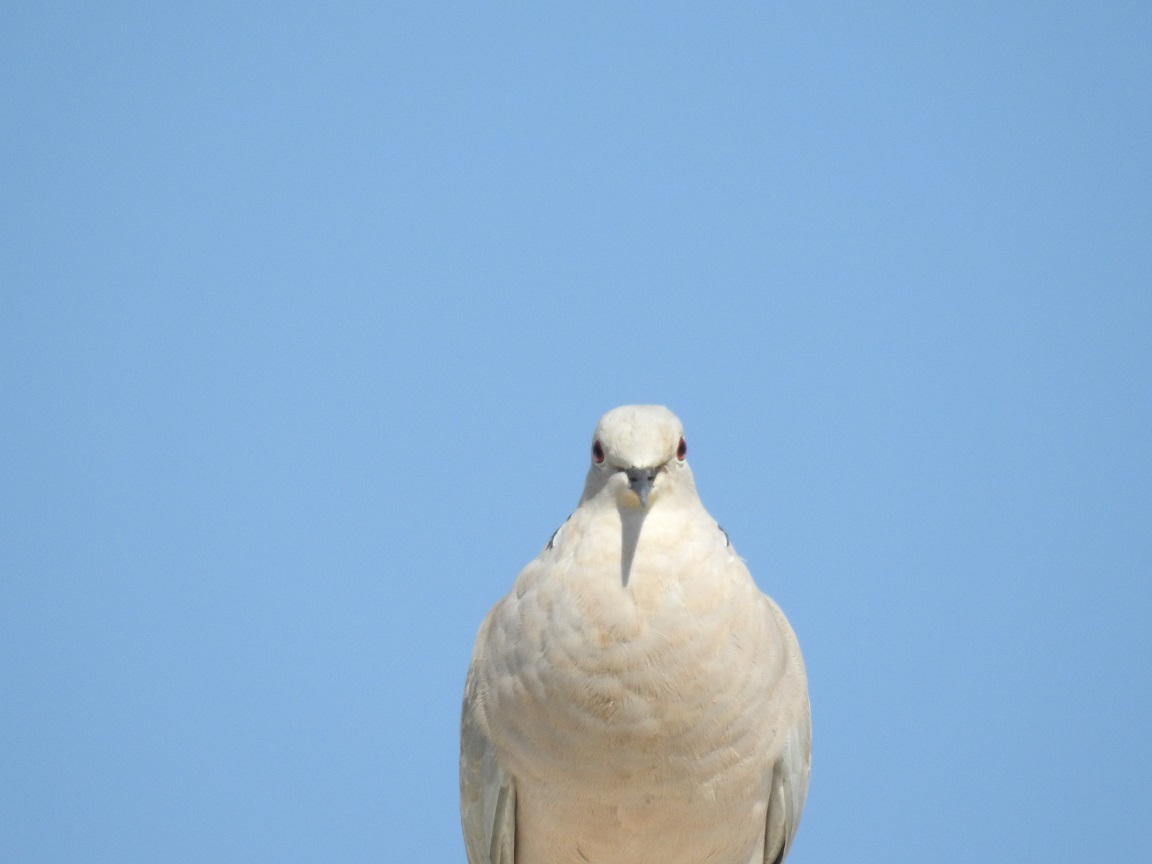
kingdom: Animalia
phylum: Chordata
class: Aves
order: Columbiformes
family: Columbidae
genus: Streptopelia
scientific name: Streptopelia decaocto
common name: Eurasian collared dove
